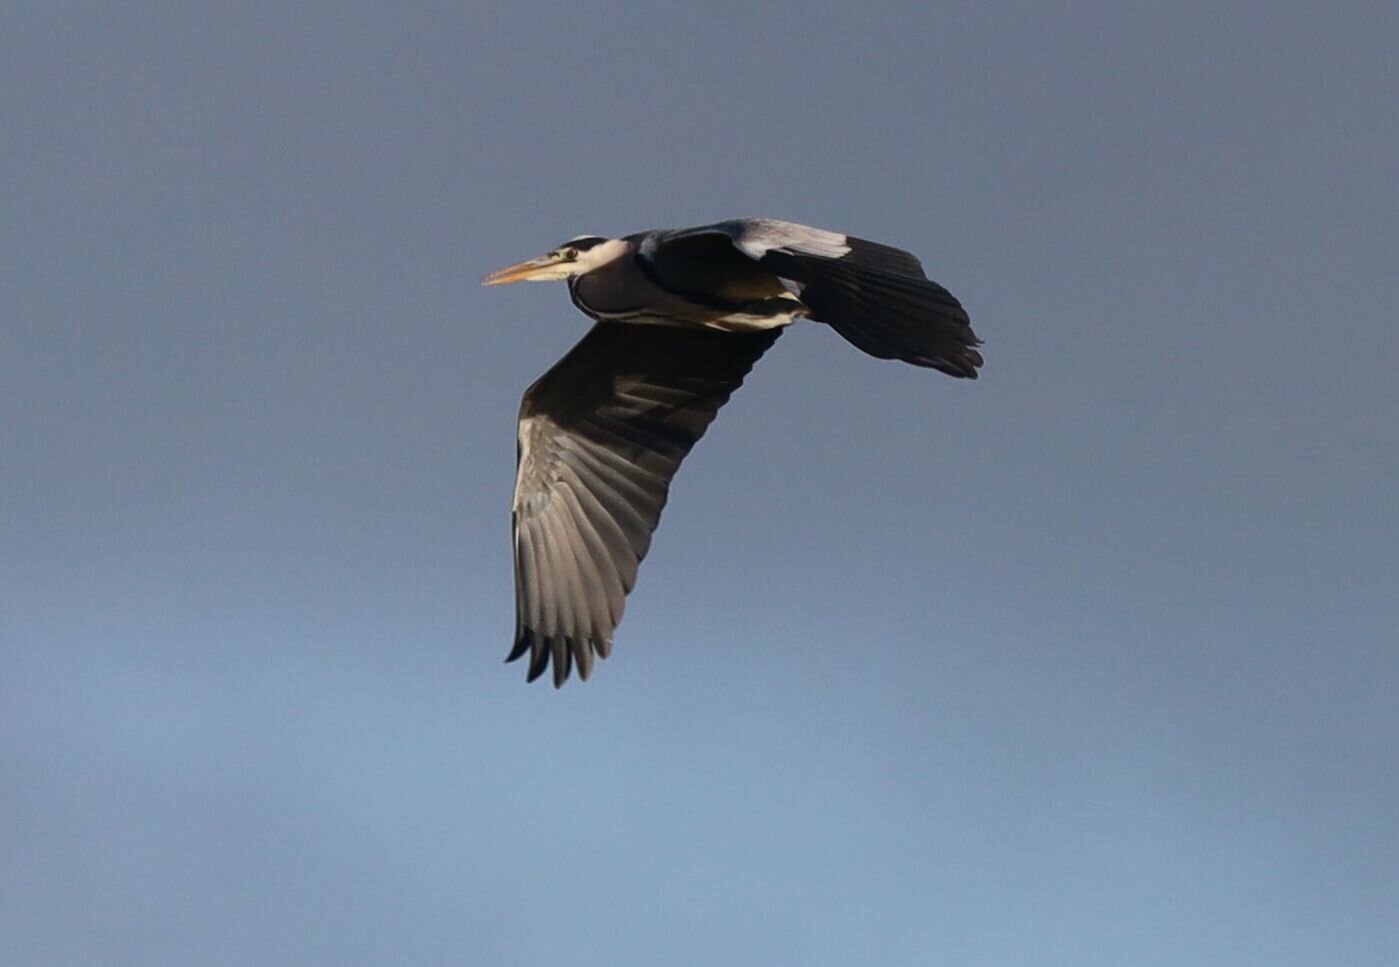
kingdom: Animalia
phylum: Chordata
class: Aves
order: Pelecaniformes
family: Ardeidae
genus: Ardea
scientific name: Ardea cinerea
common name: Grey heron
